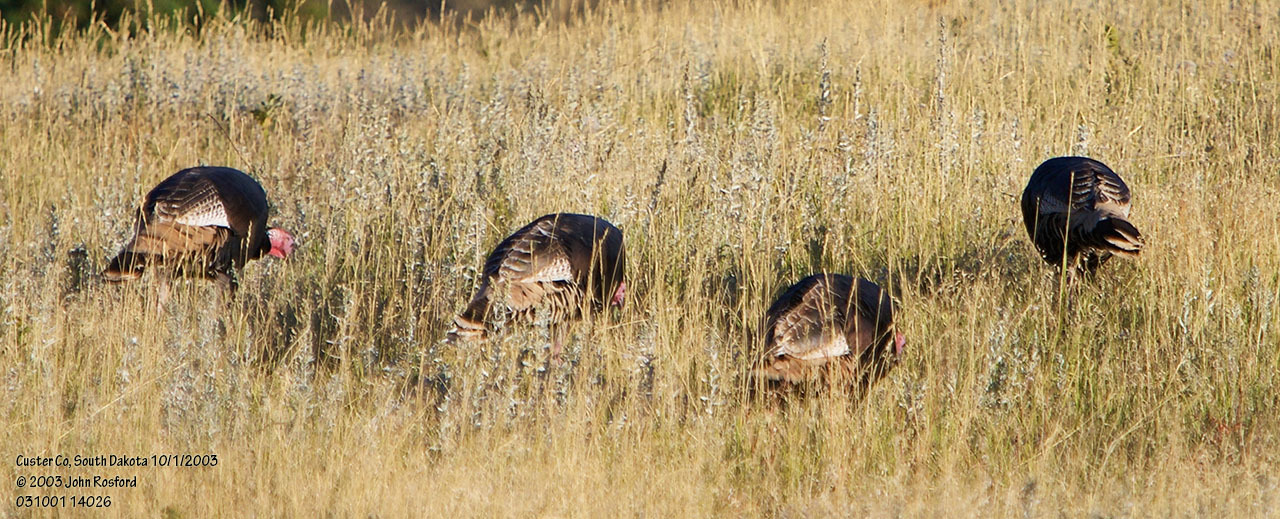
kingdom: Animalia
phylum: Chordata
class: Aves
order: Galliformes
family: Phasianidae
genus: Meleagris
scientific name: Meleagris gallopavo
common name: Wild turkey
